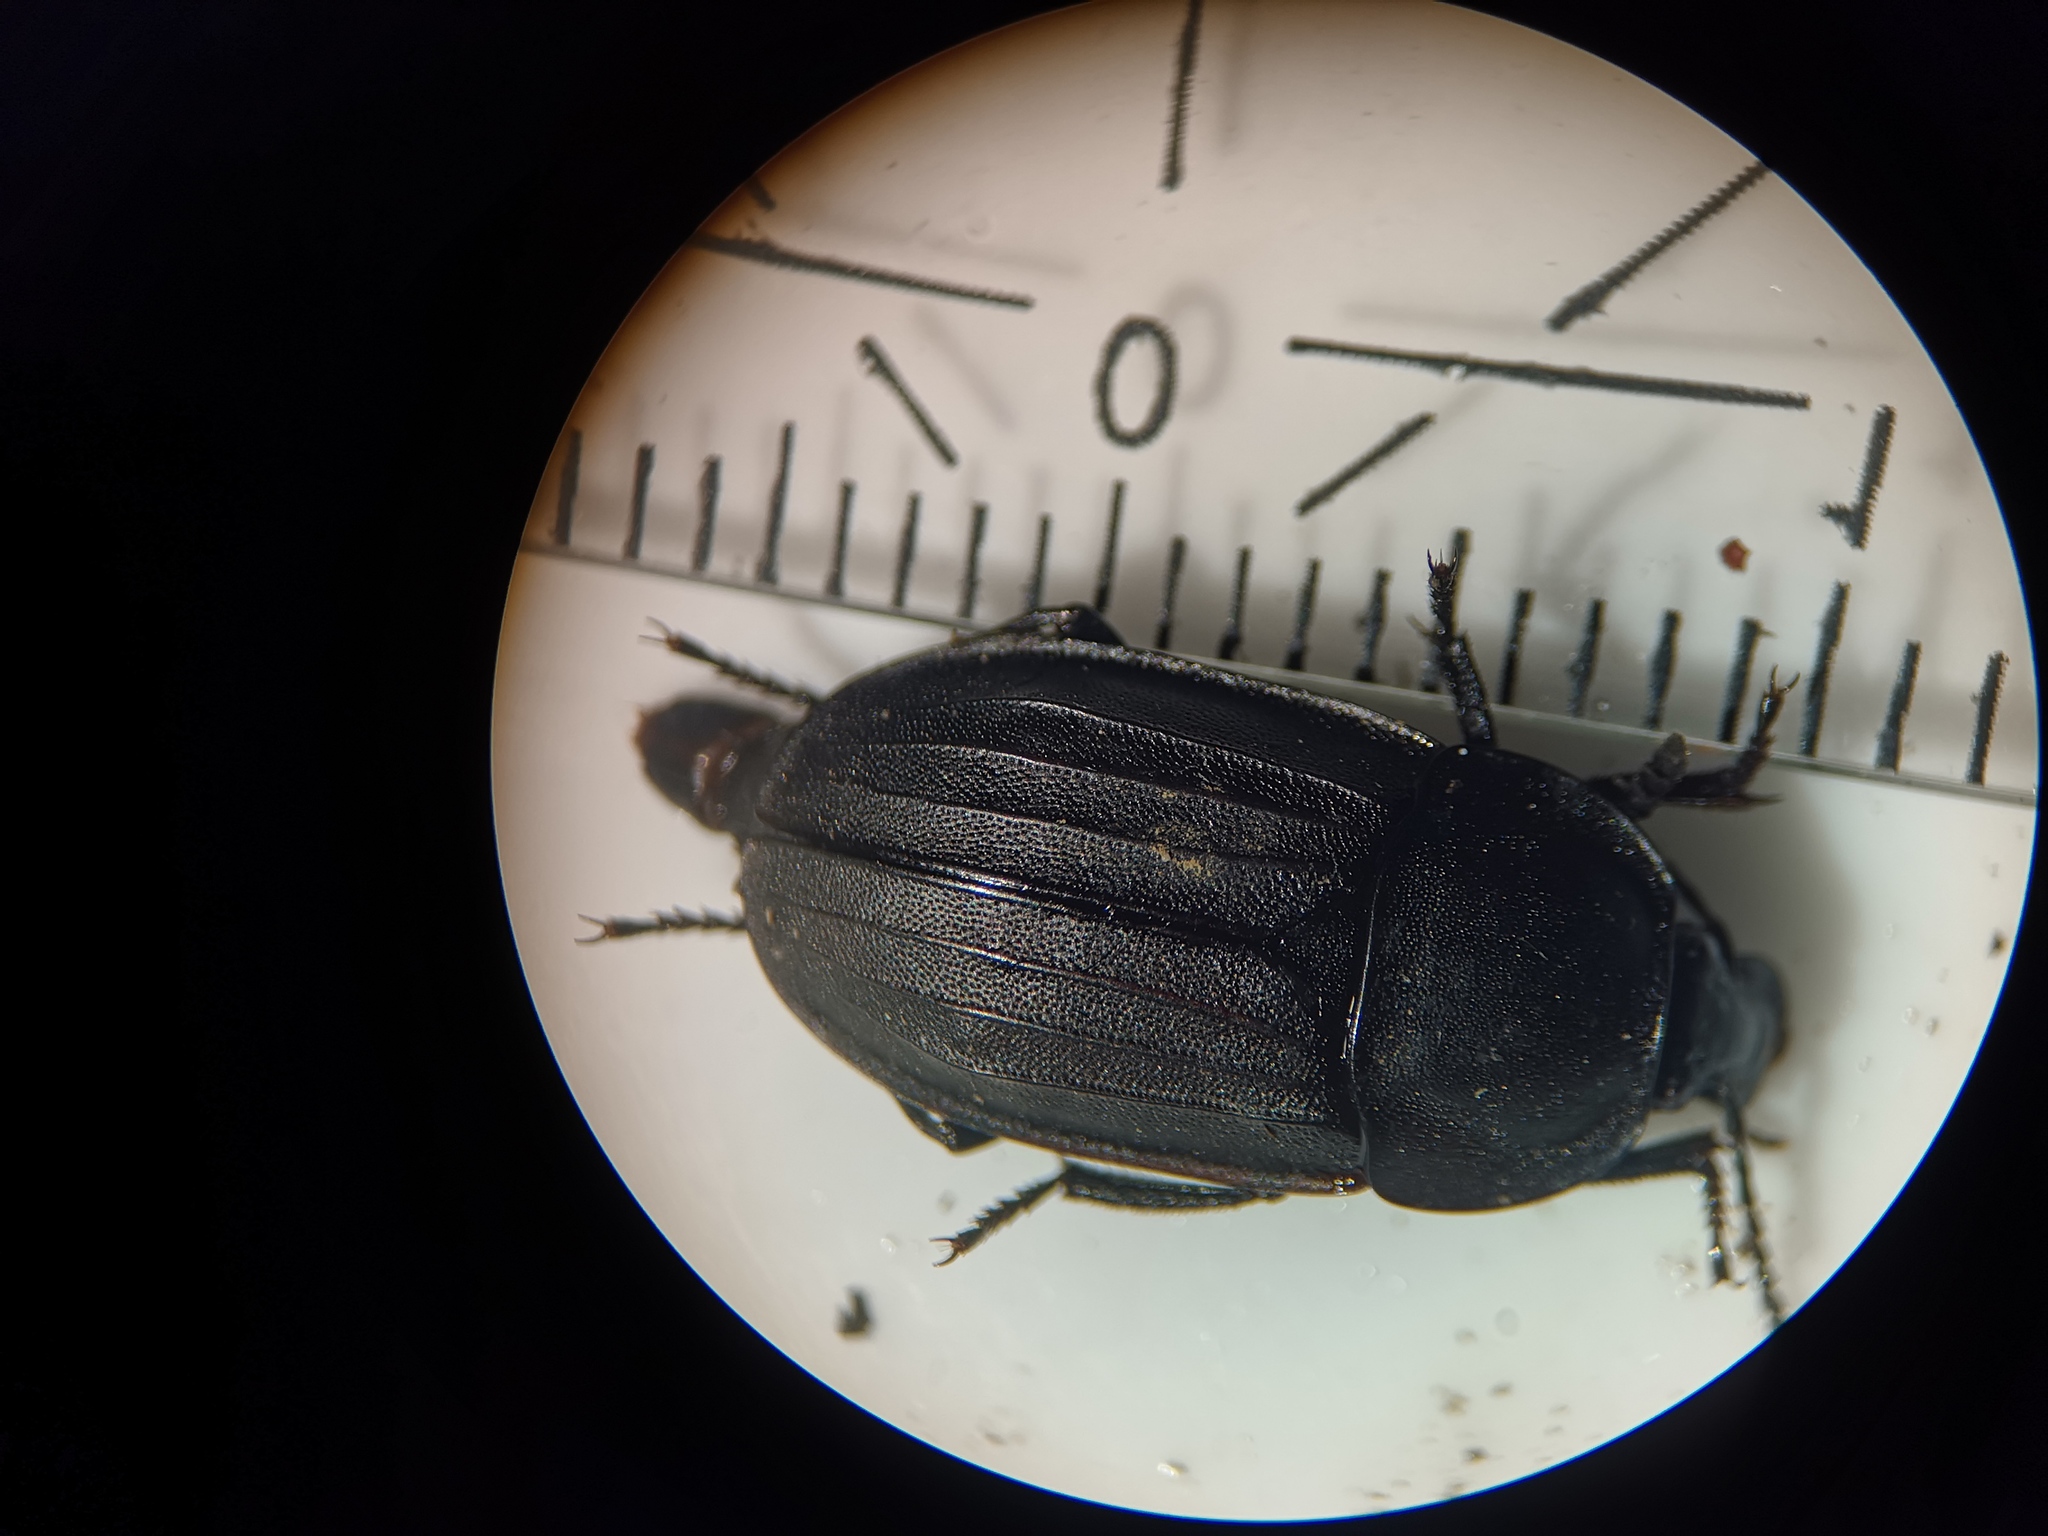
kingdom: Animalia
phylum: Arthropoda
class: Insecta
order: Coleoptera
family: Staphylinidae
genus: Silpha
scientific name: Silpha tristis
